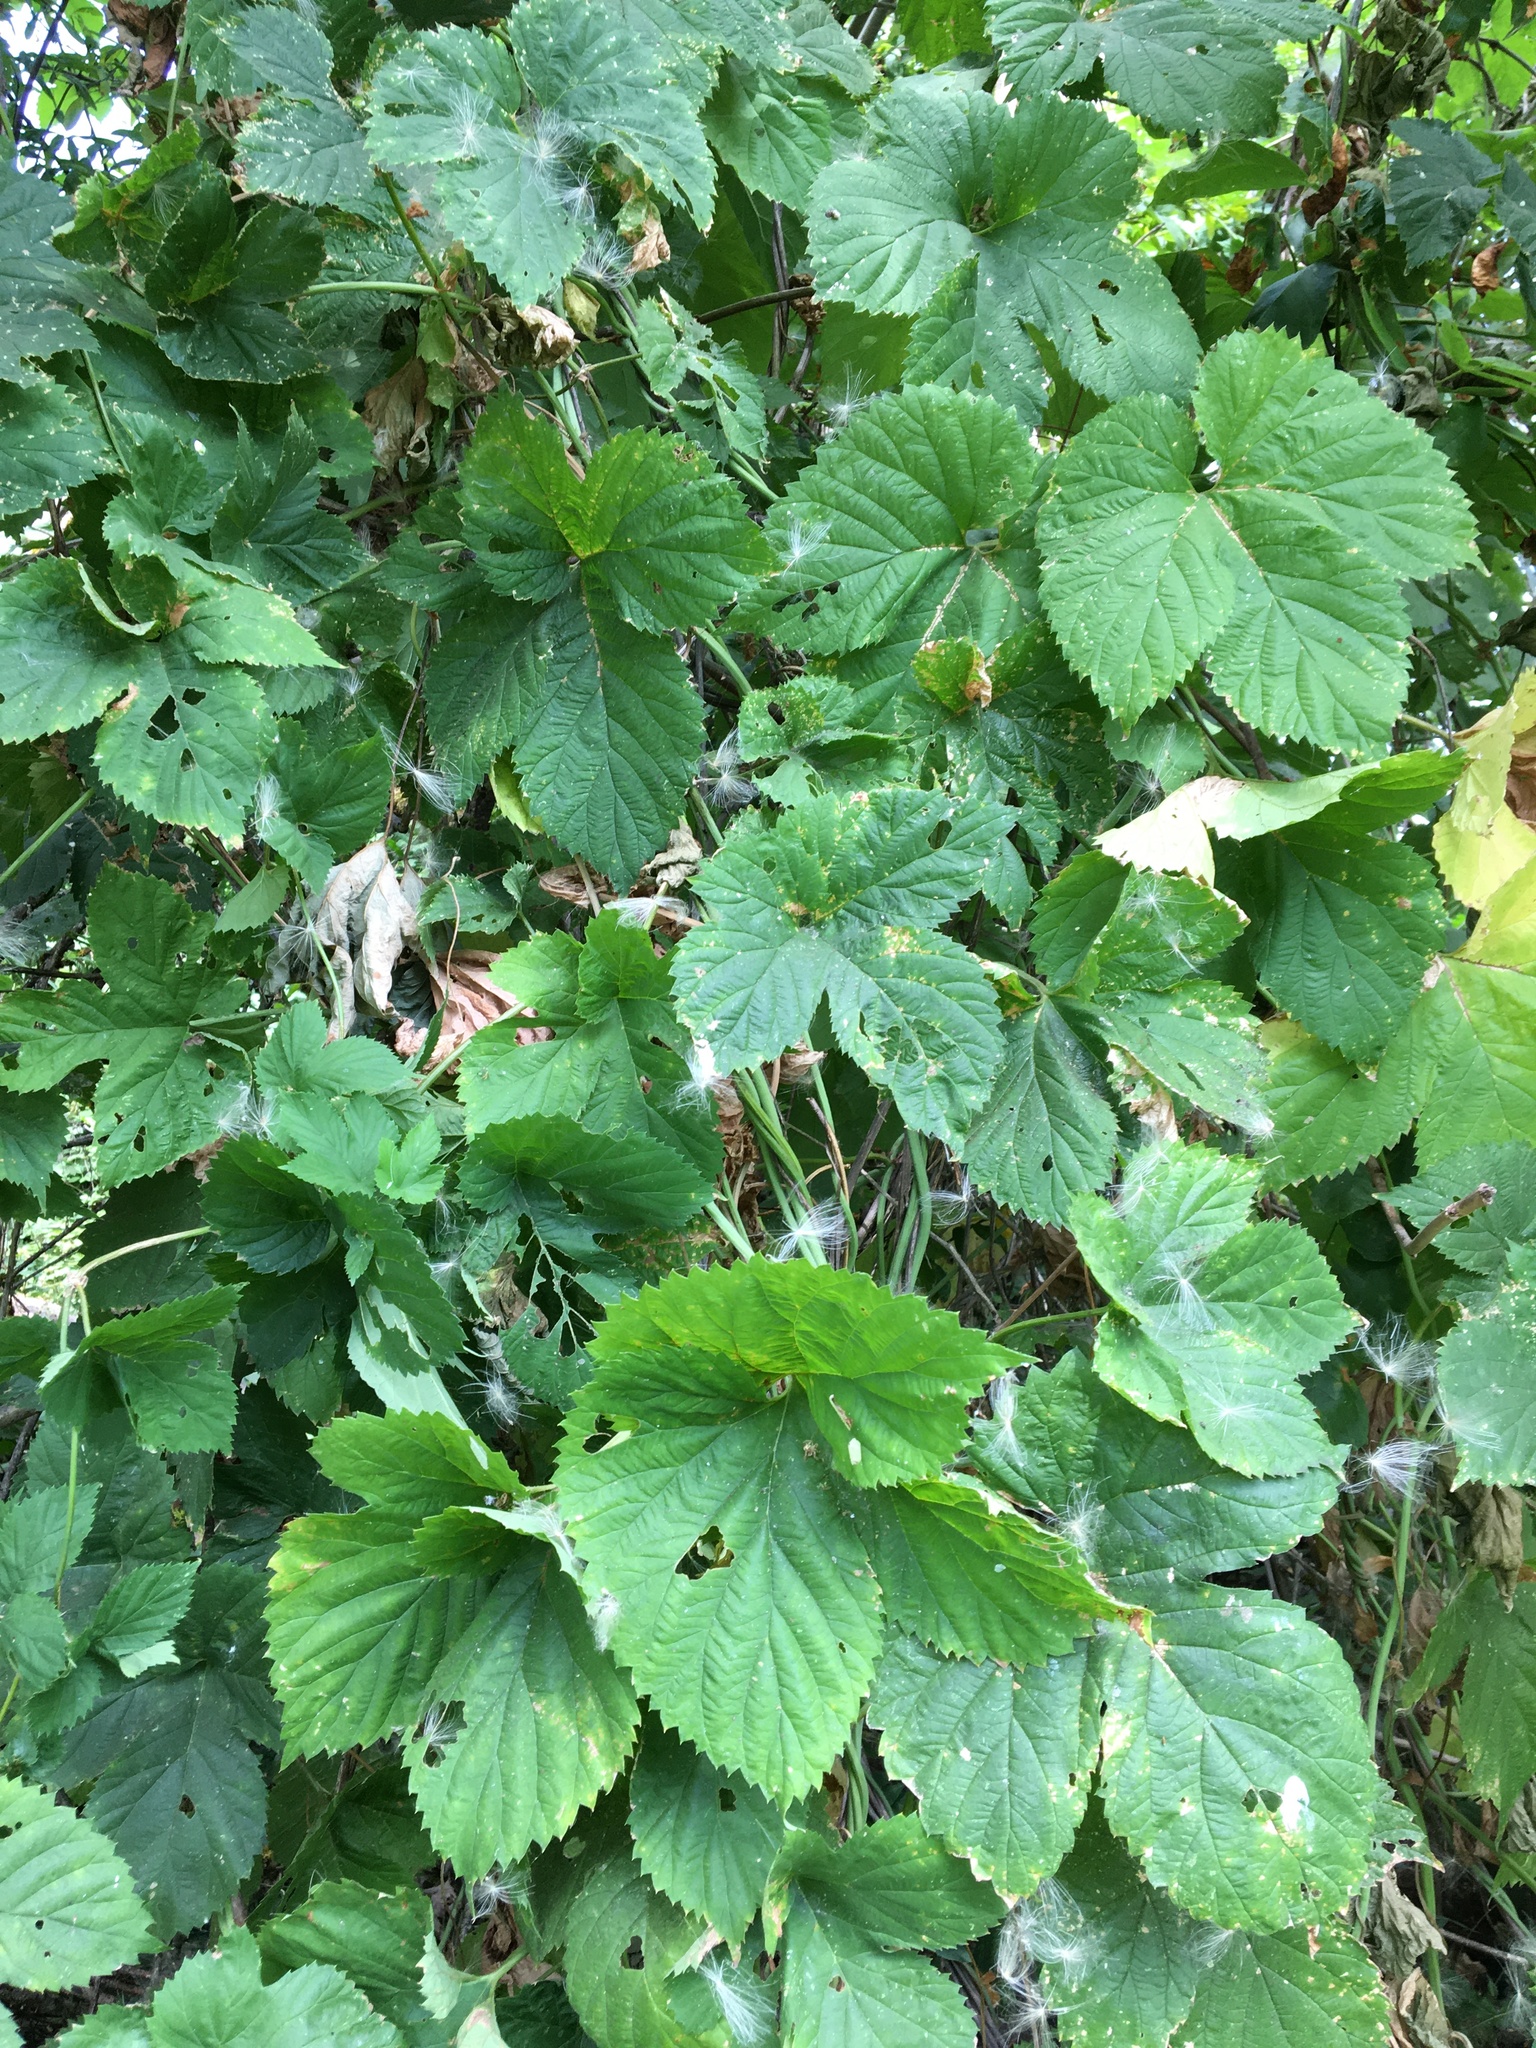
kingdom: Plantae
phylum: Tracheophyta
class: Magnoliopsida
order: Rosales
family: Cannabaceae
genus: Humulus
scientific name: Humulus lupulus
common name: Hop
